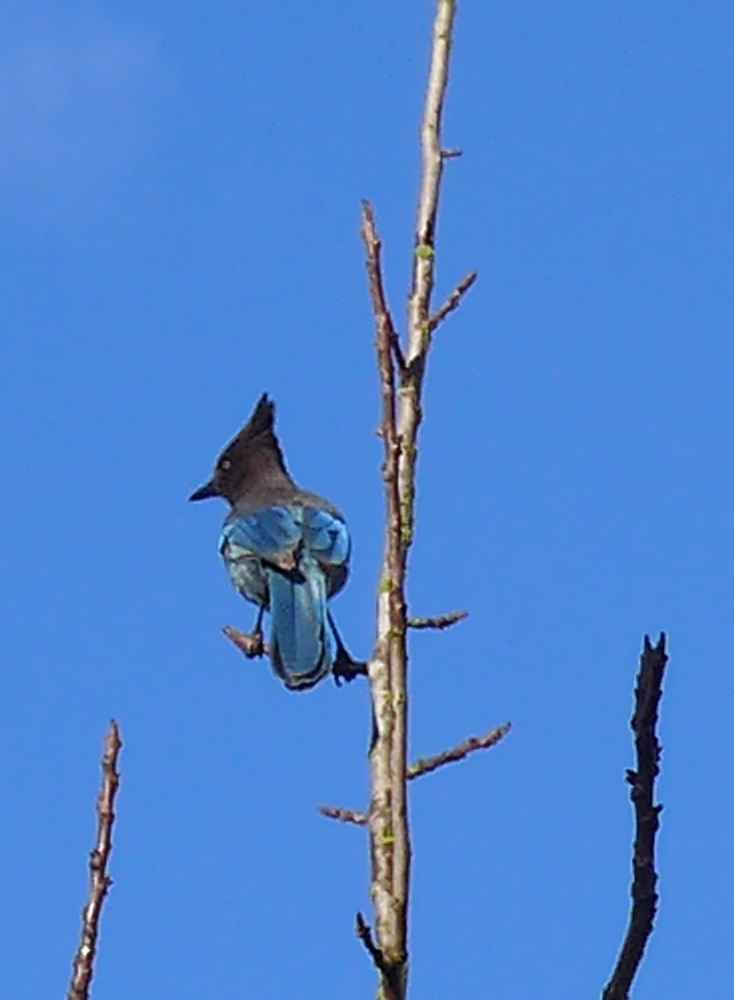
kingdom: Animalia
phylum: Chordata
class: Aves
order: Passeriformes
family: Corvidae
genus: Cyanocitta
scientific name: Cyanocitta stelleri
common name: Steller's jay
